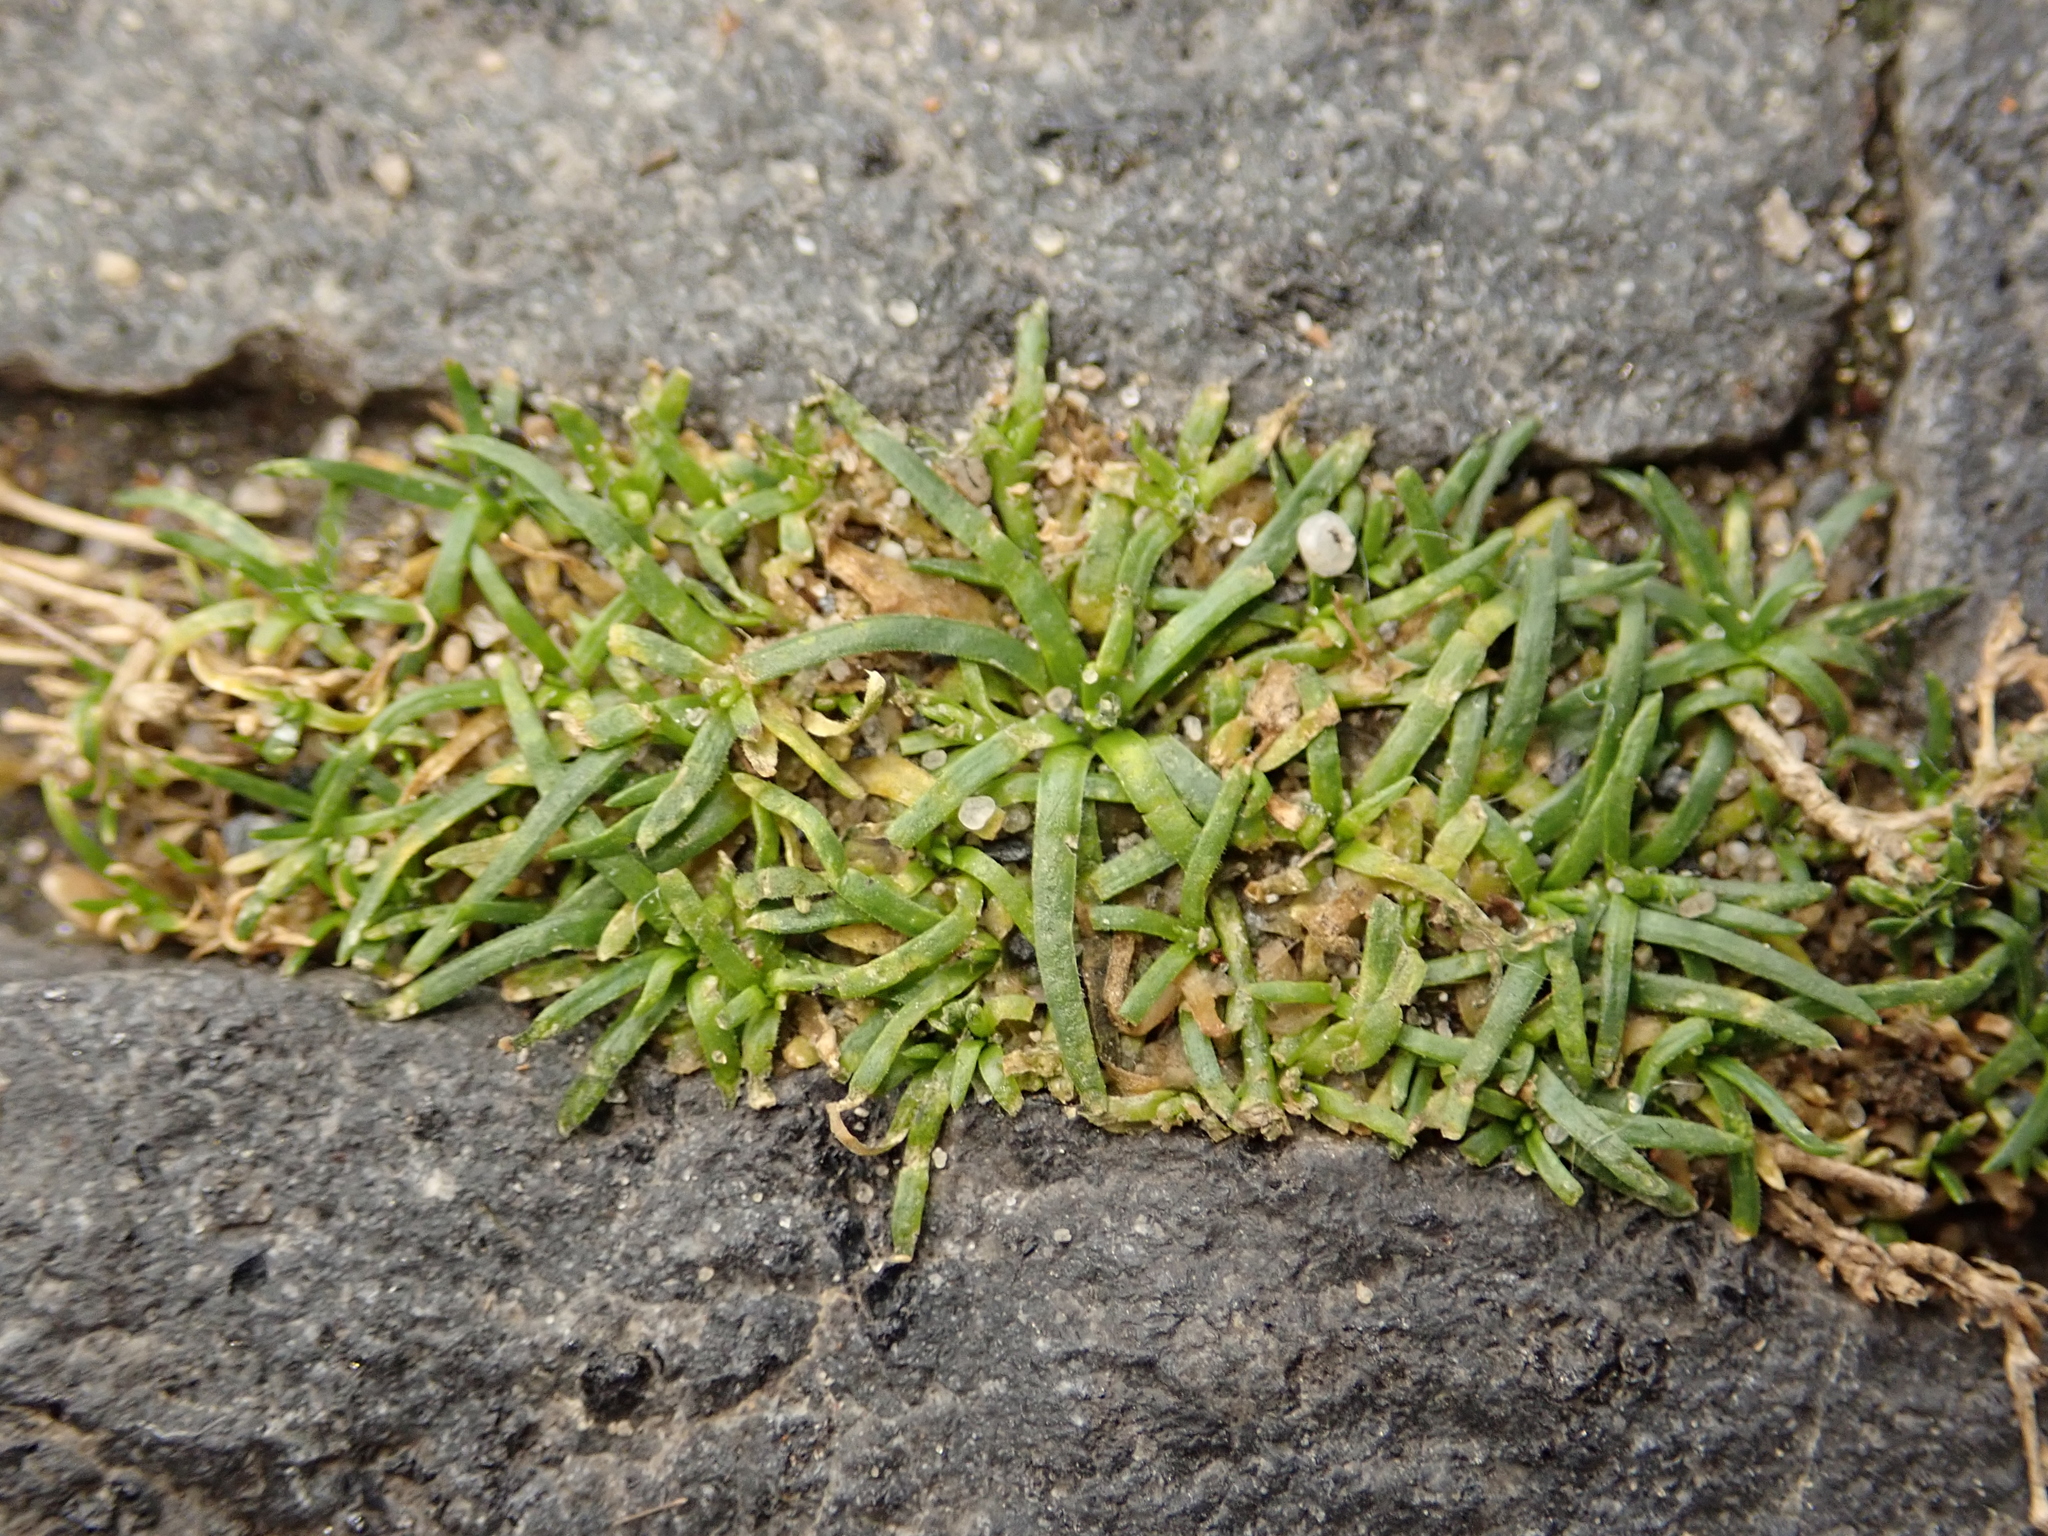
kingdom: Plantae
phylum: Tracheophyta
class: Magnoliopsida
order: Caryophyllales
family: Caryophyllaceae
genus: Sagina
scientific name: Sagina procumbens
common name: Procumbent pearlwort
